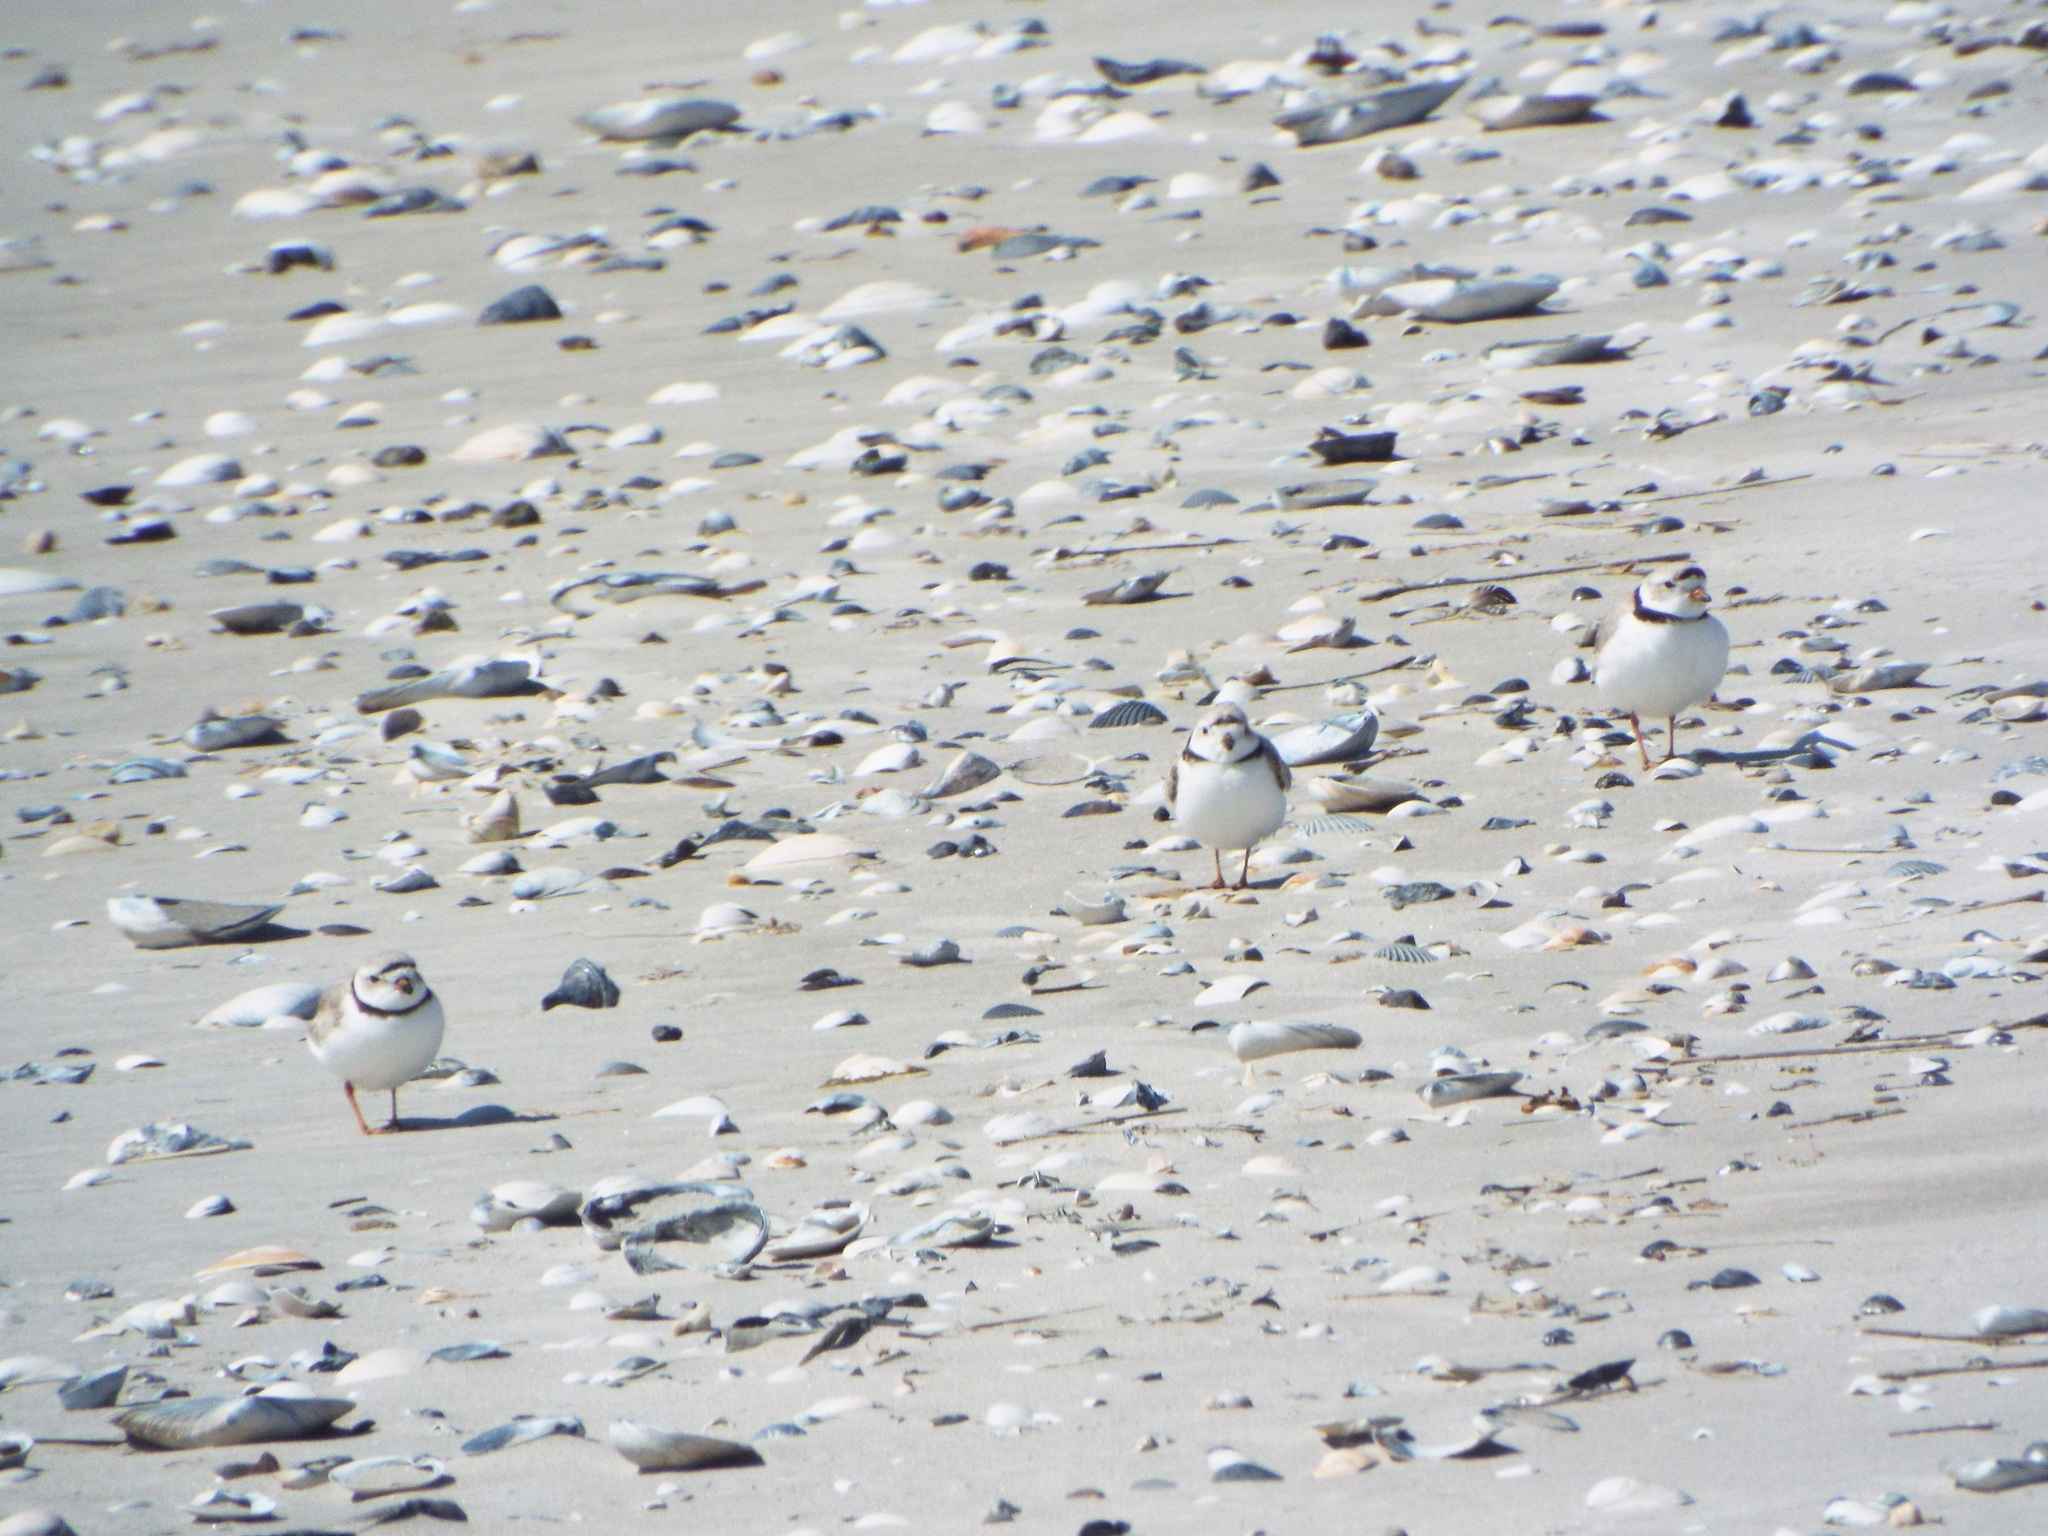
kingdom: Animalia
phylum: Chordata
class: Aves
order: Charadriiformes
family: Charadriidae
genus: Charadrius
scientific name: Charadrius melodus
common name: Piping plover
